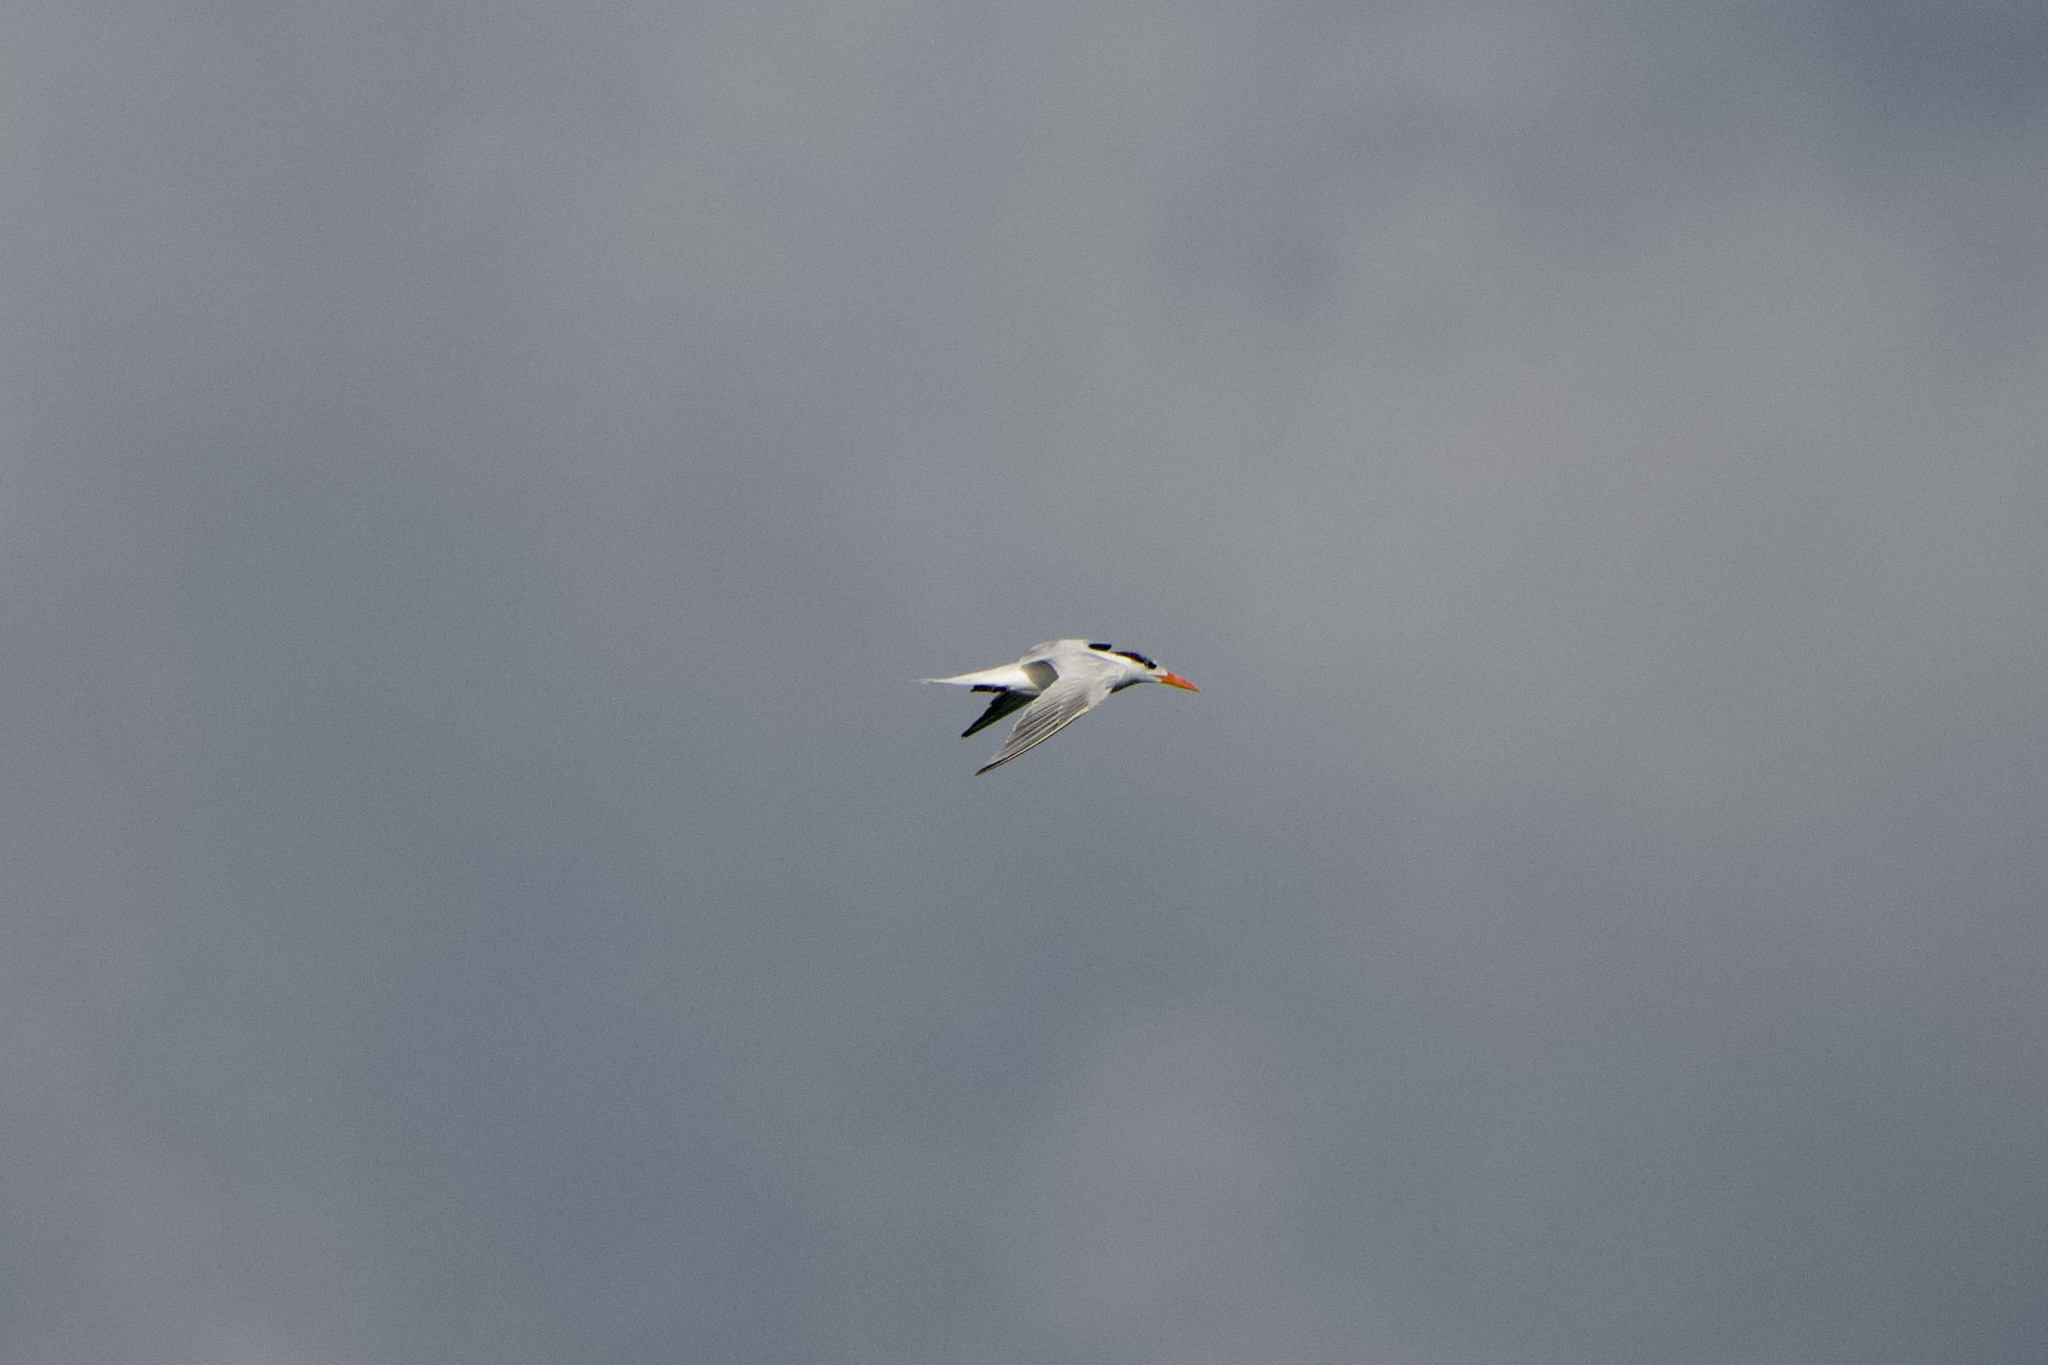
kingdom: Animalia
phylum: Chordata
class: Aves
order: Charadriiformes
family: Laridae
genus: Thalasseus
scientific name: Thalasseus maximus
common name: Royal tern
